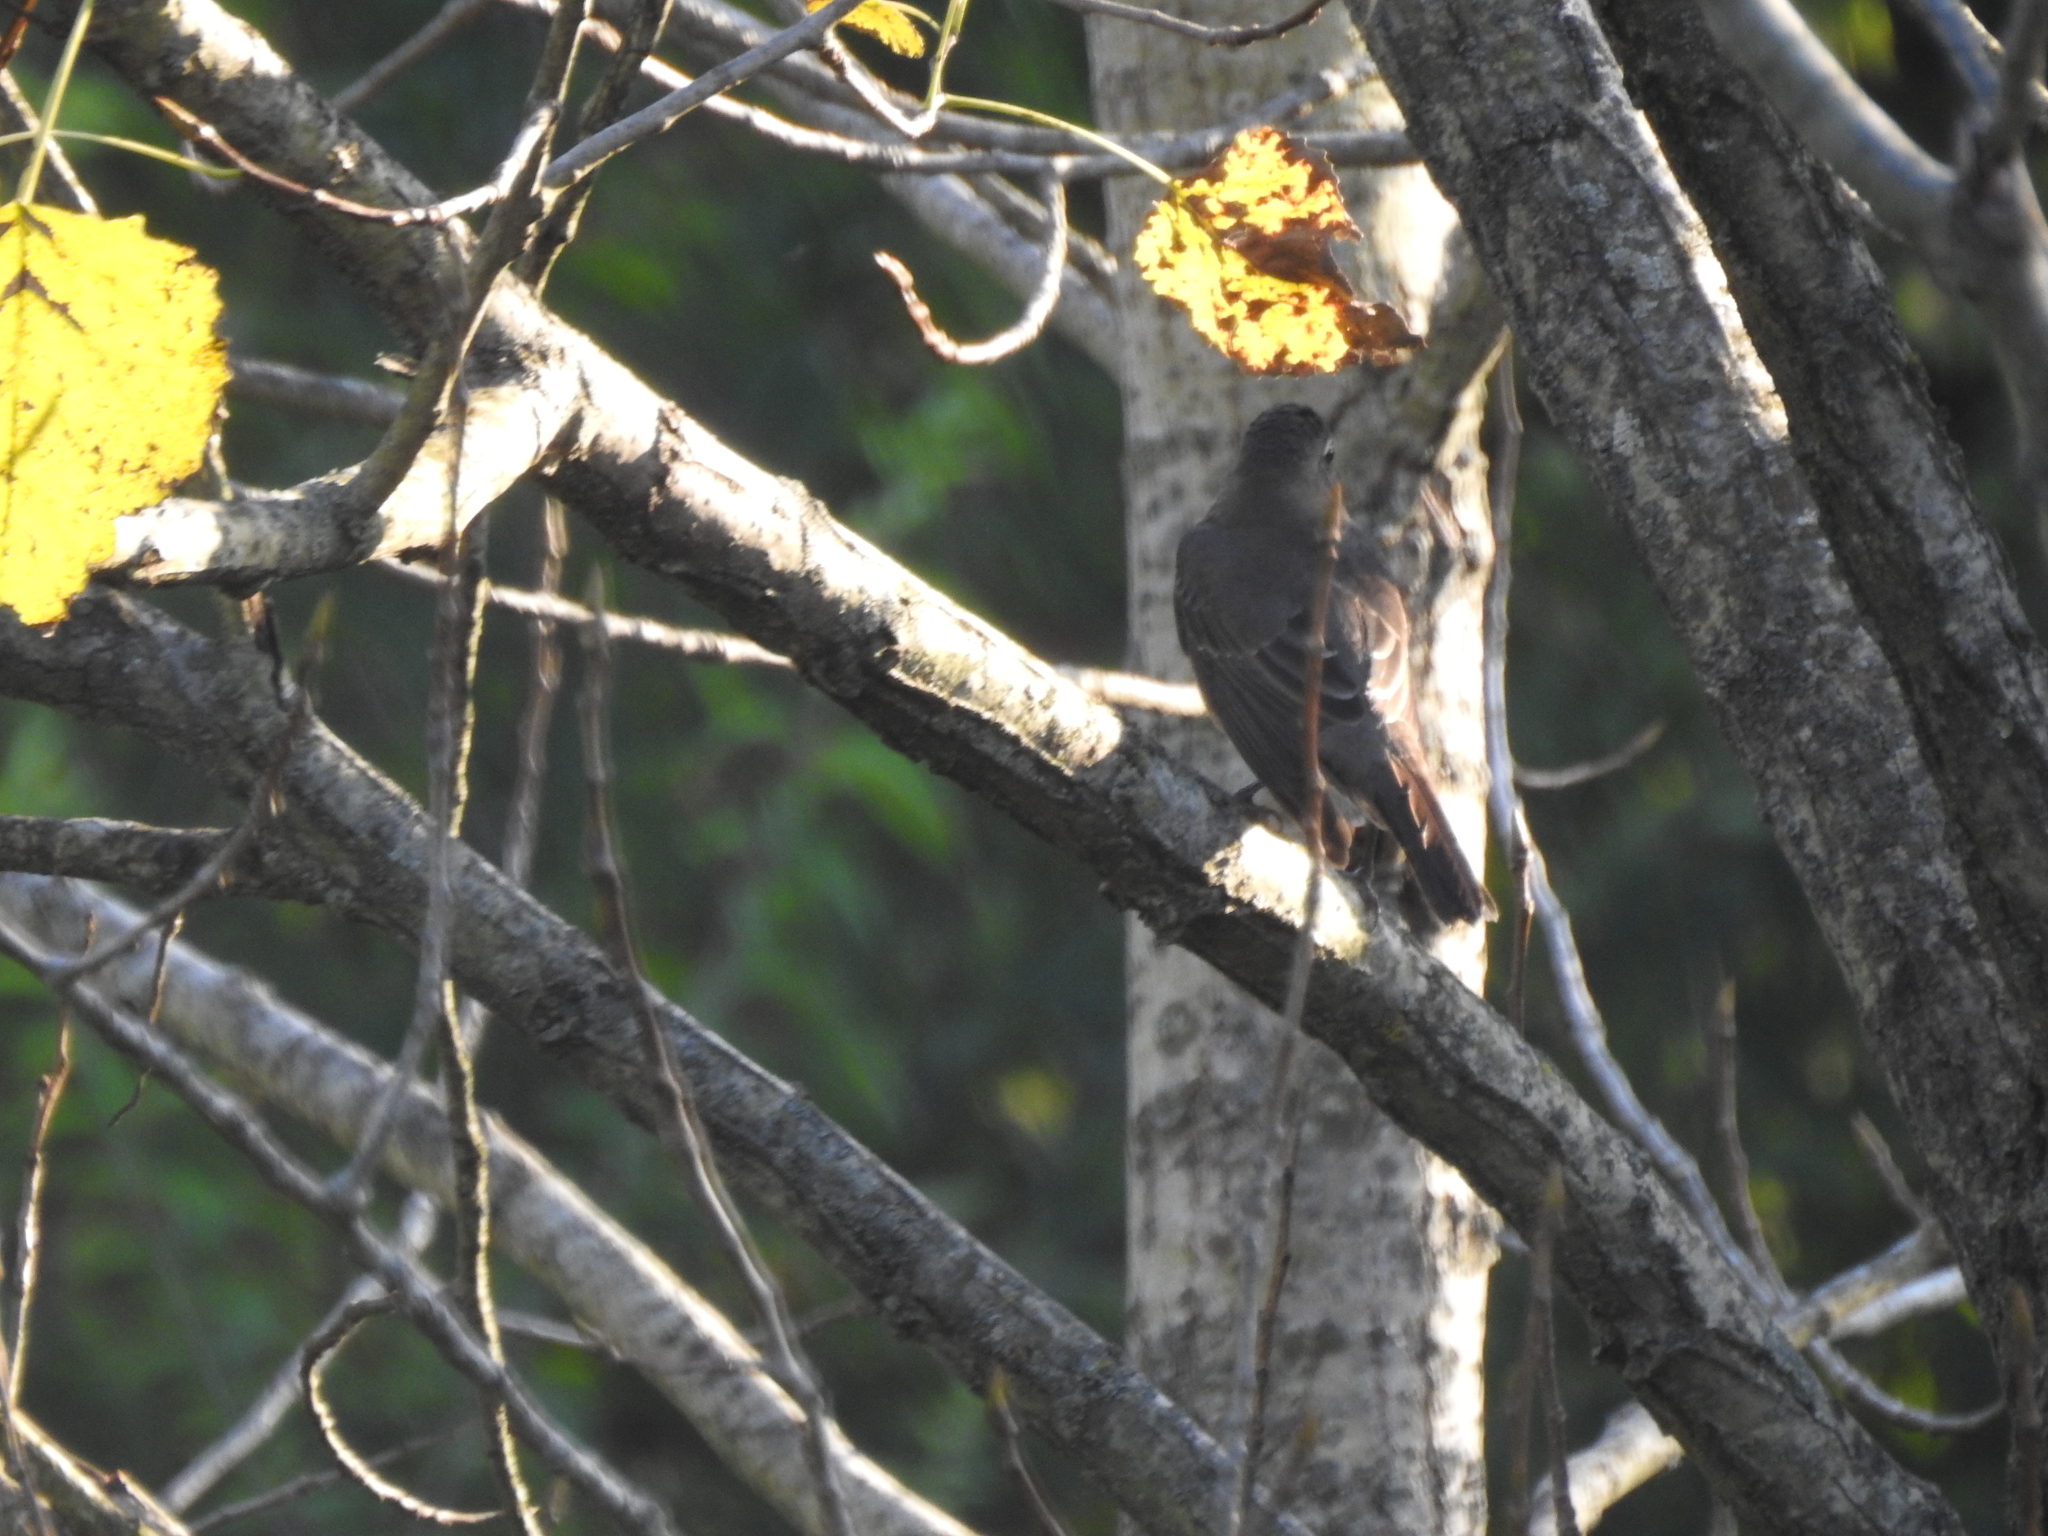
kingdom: Animalia
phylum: Chordata
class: Aves
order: Passeriformes
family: Turdidae
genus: Turdus
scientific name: Turdus migratorius
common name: American robin
